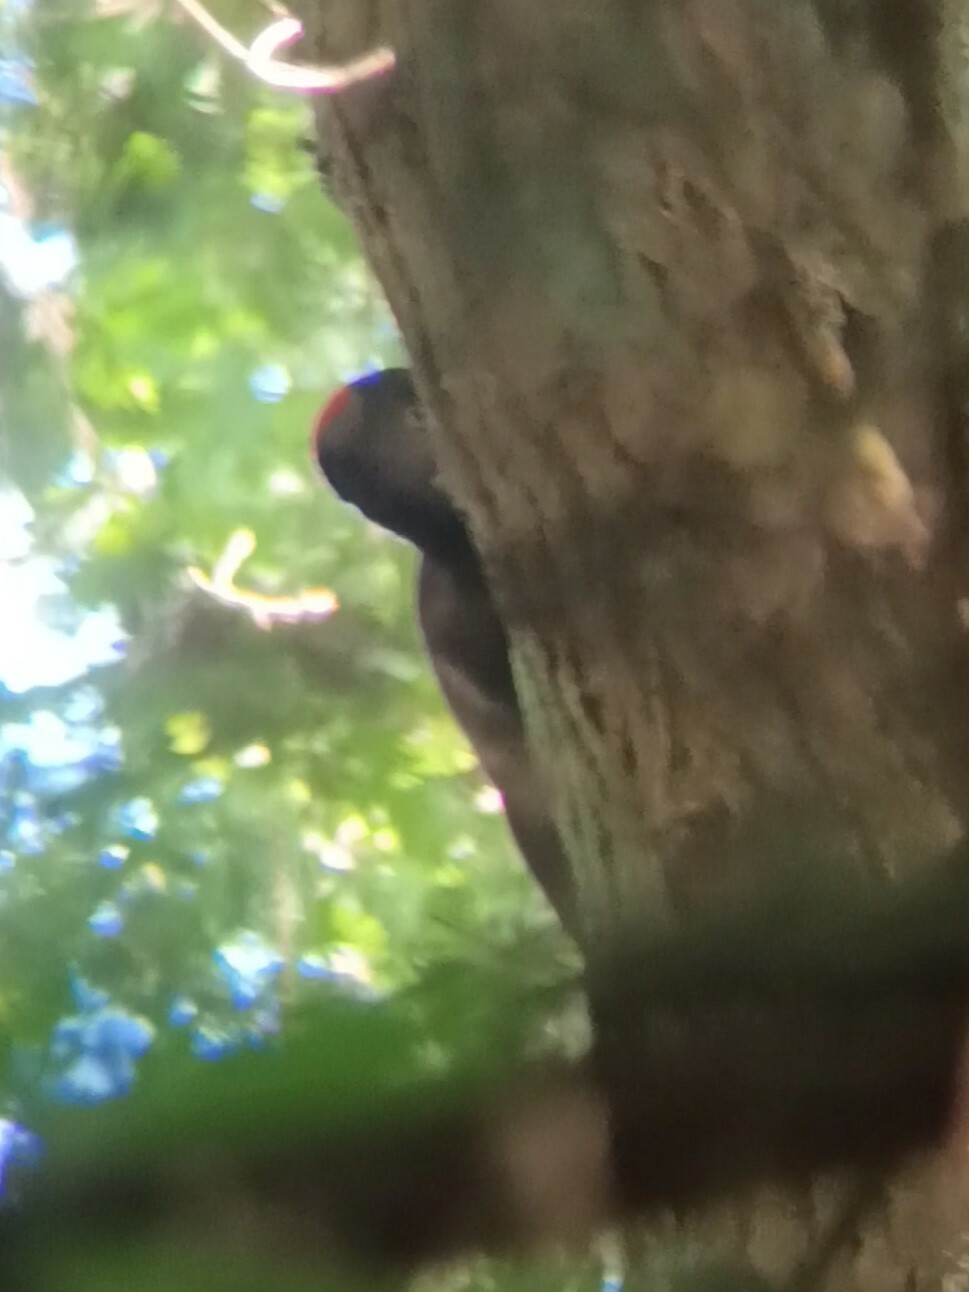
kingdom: Animalia
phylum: Chordata
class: Aves
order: Piciformes
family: Picidae
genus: Dryocopus
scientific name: Dryocopus martius
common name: Black woodpecker
